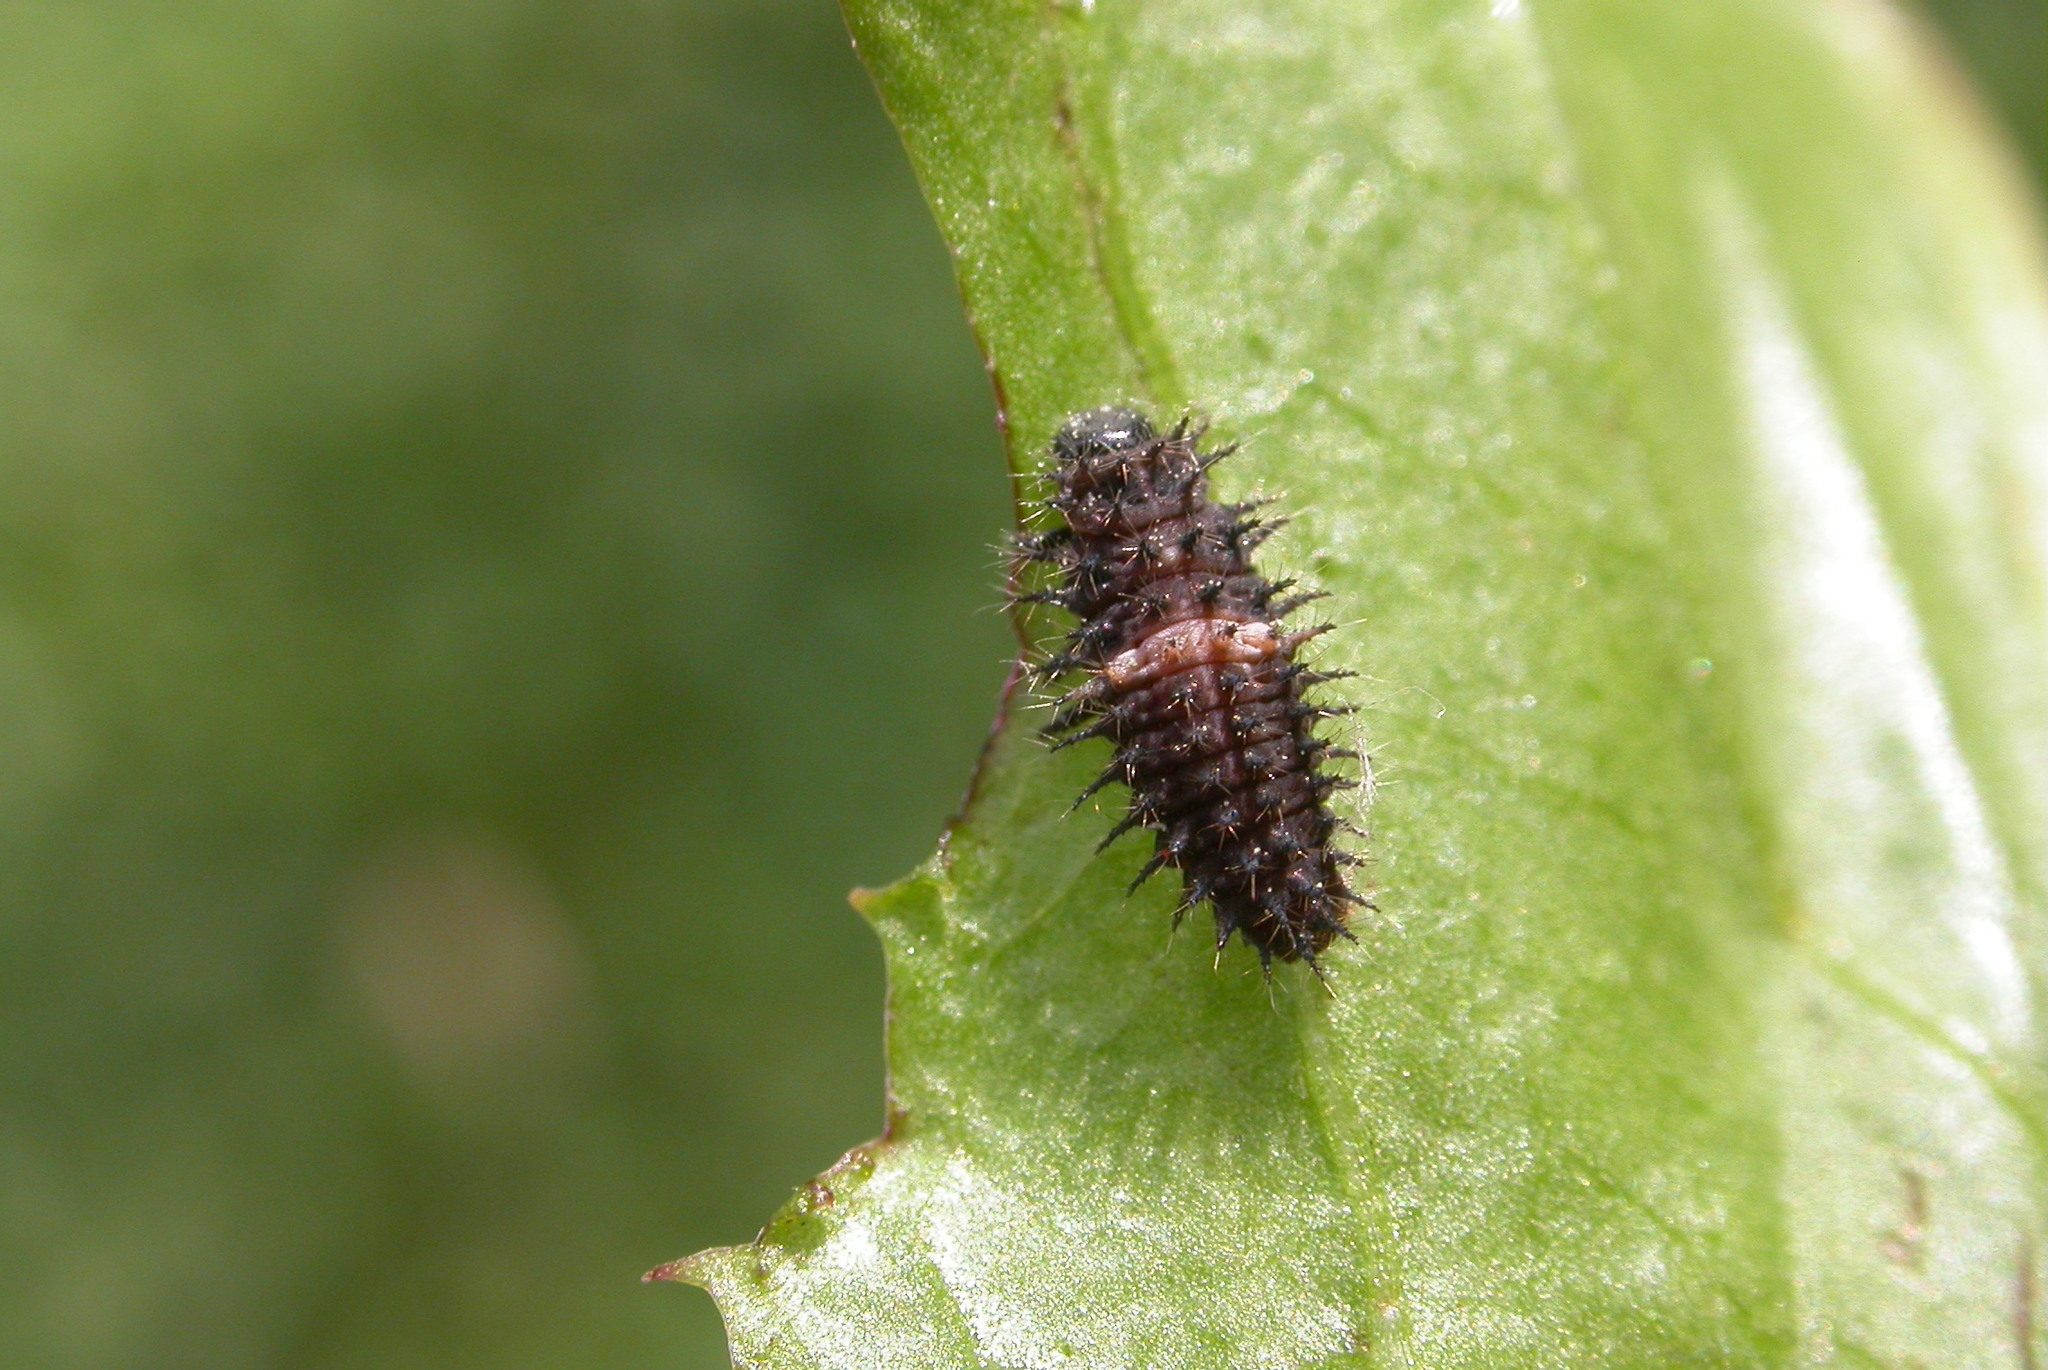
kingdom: Animalia
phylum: Arthropoda
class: Insecta
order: Coleoptera
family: Coccinellidae
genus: Chilocorus
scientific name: Chilocorus bipustulatus
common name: Heather ladybird
